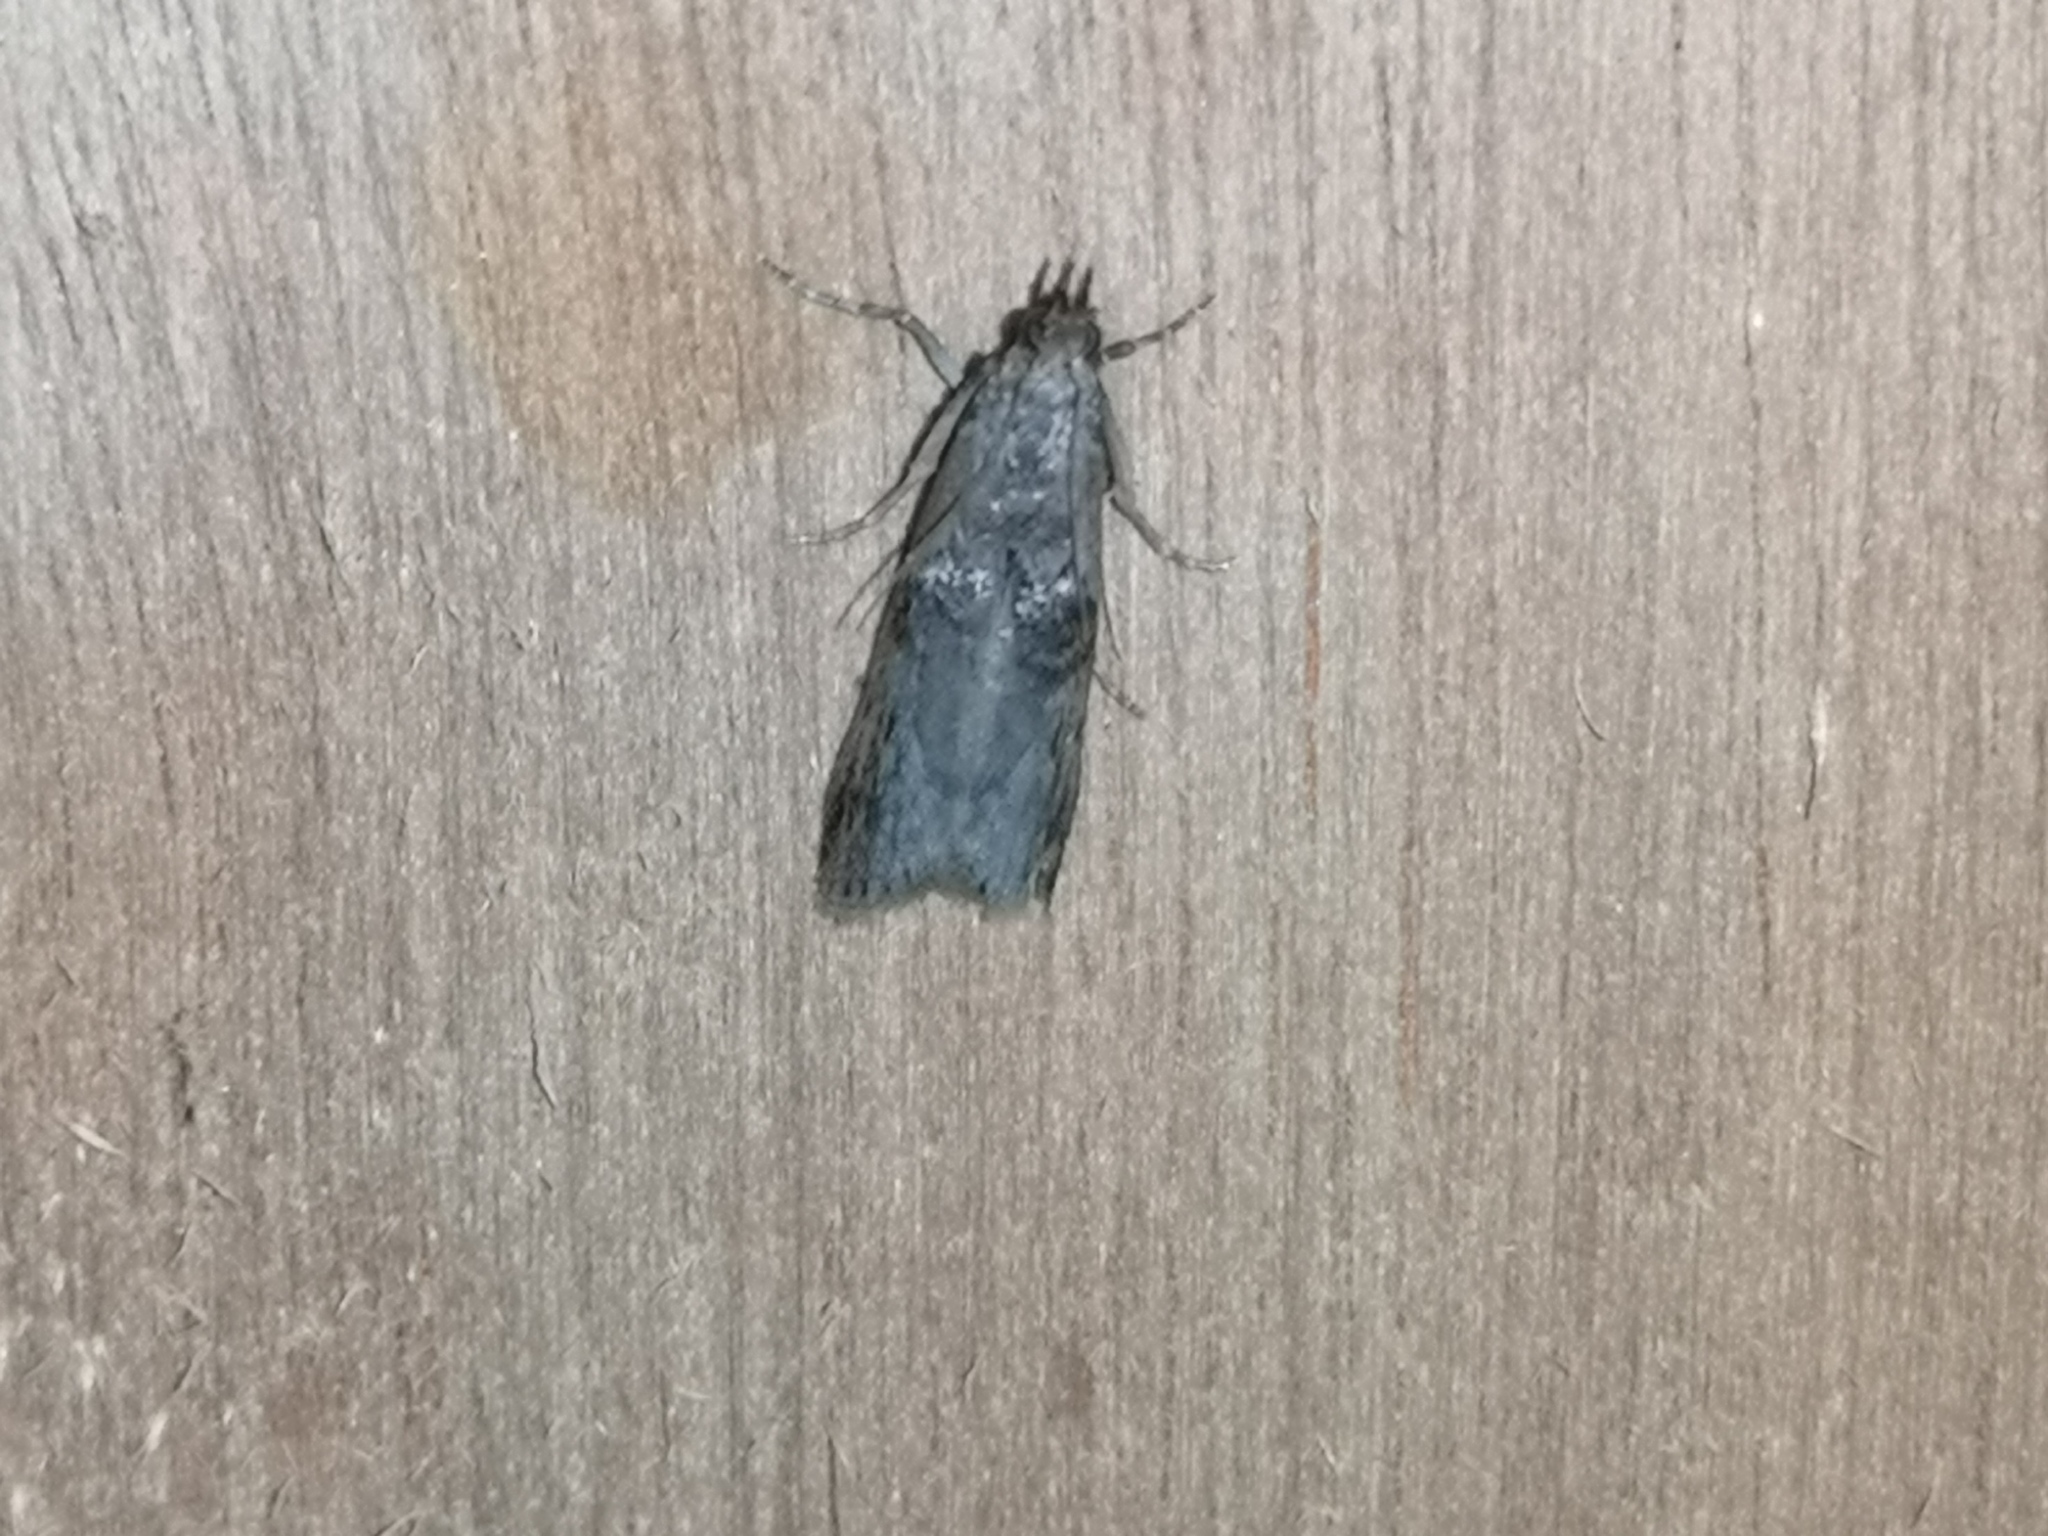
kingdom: Animalia
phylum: Arthropoda
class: Insecta
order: Lepidoptera
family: Pyralidae
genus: Nephopterix
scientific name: Nephopterix angustella
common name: Spindle knot-horn
